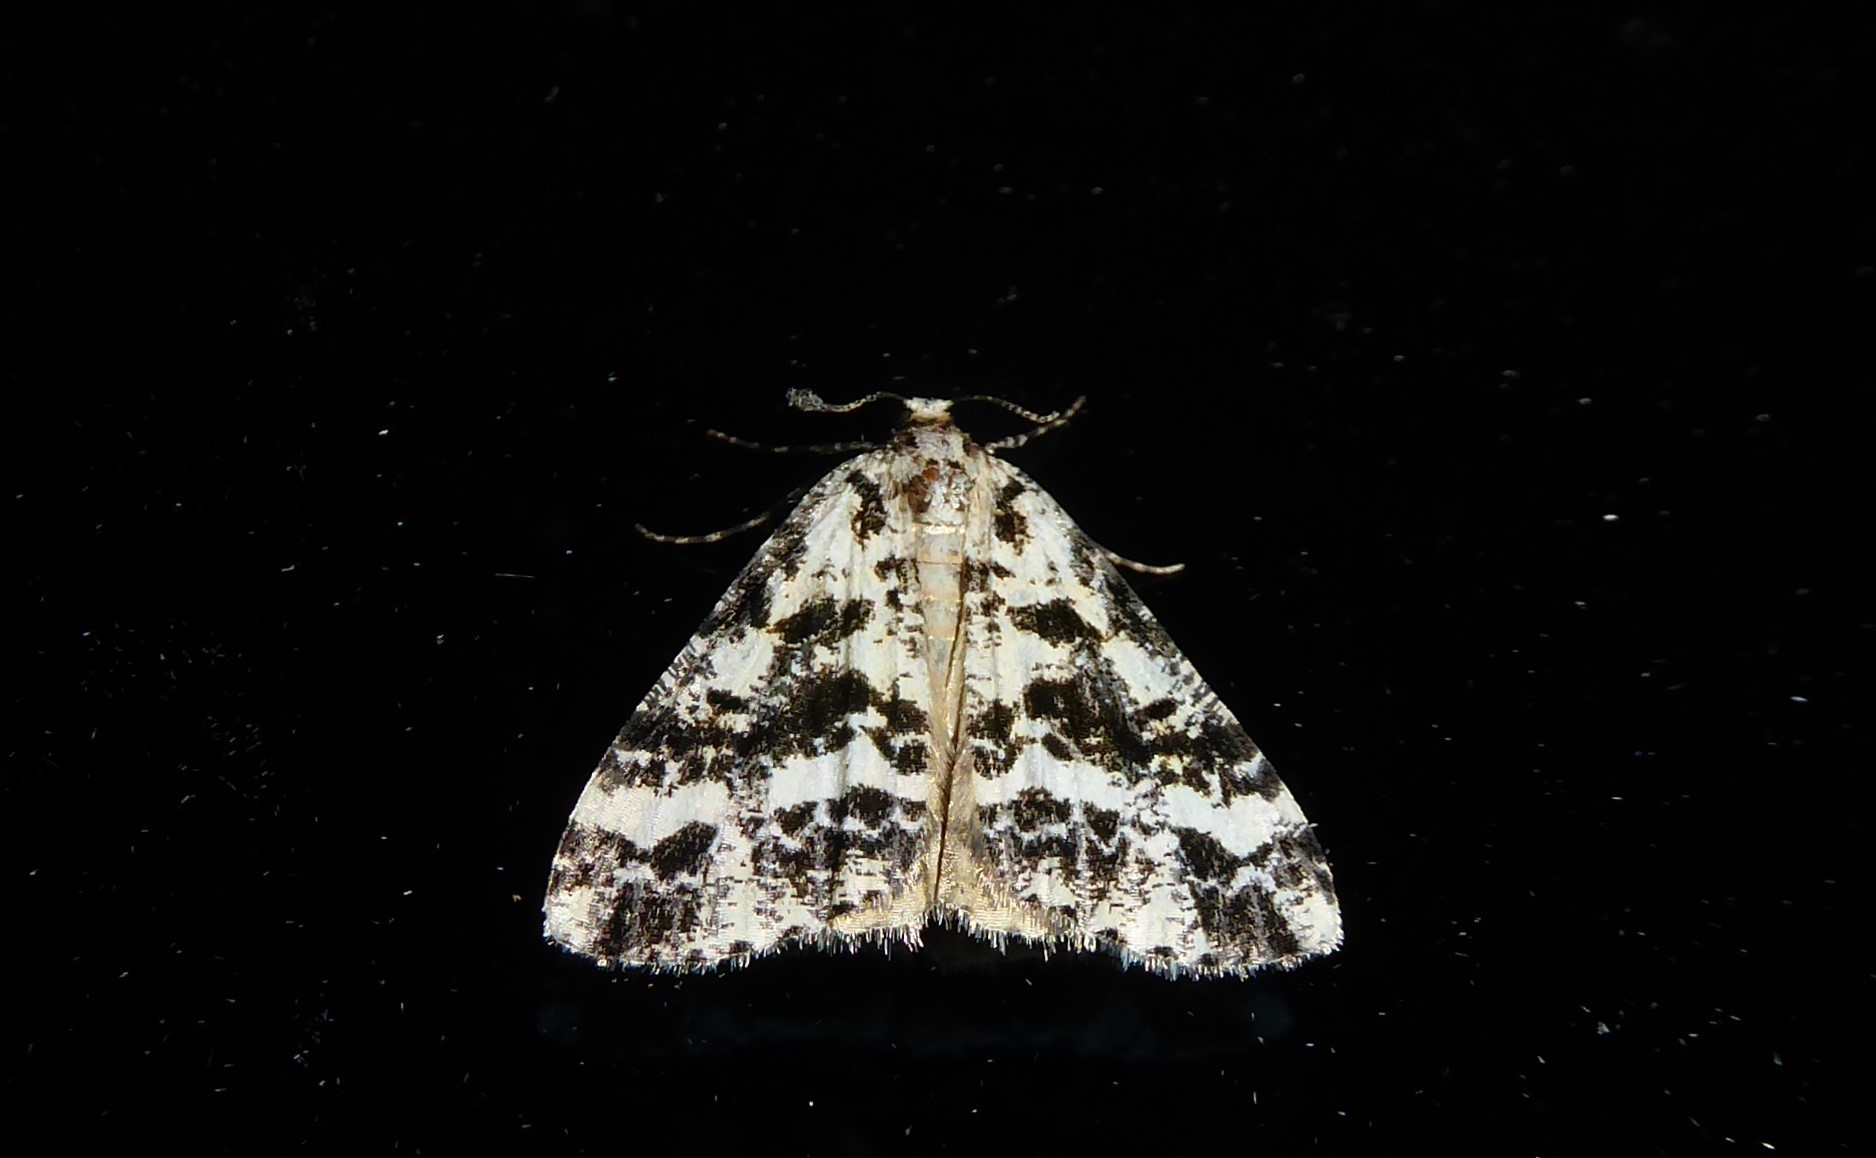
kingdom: Animalia
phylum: Arthropoda
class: Insecta
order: Lepidoptera
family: Geometridae
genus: Pseudocoremia
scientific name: Pseudocoremia leucelaea
